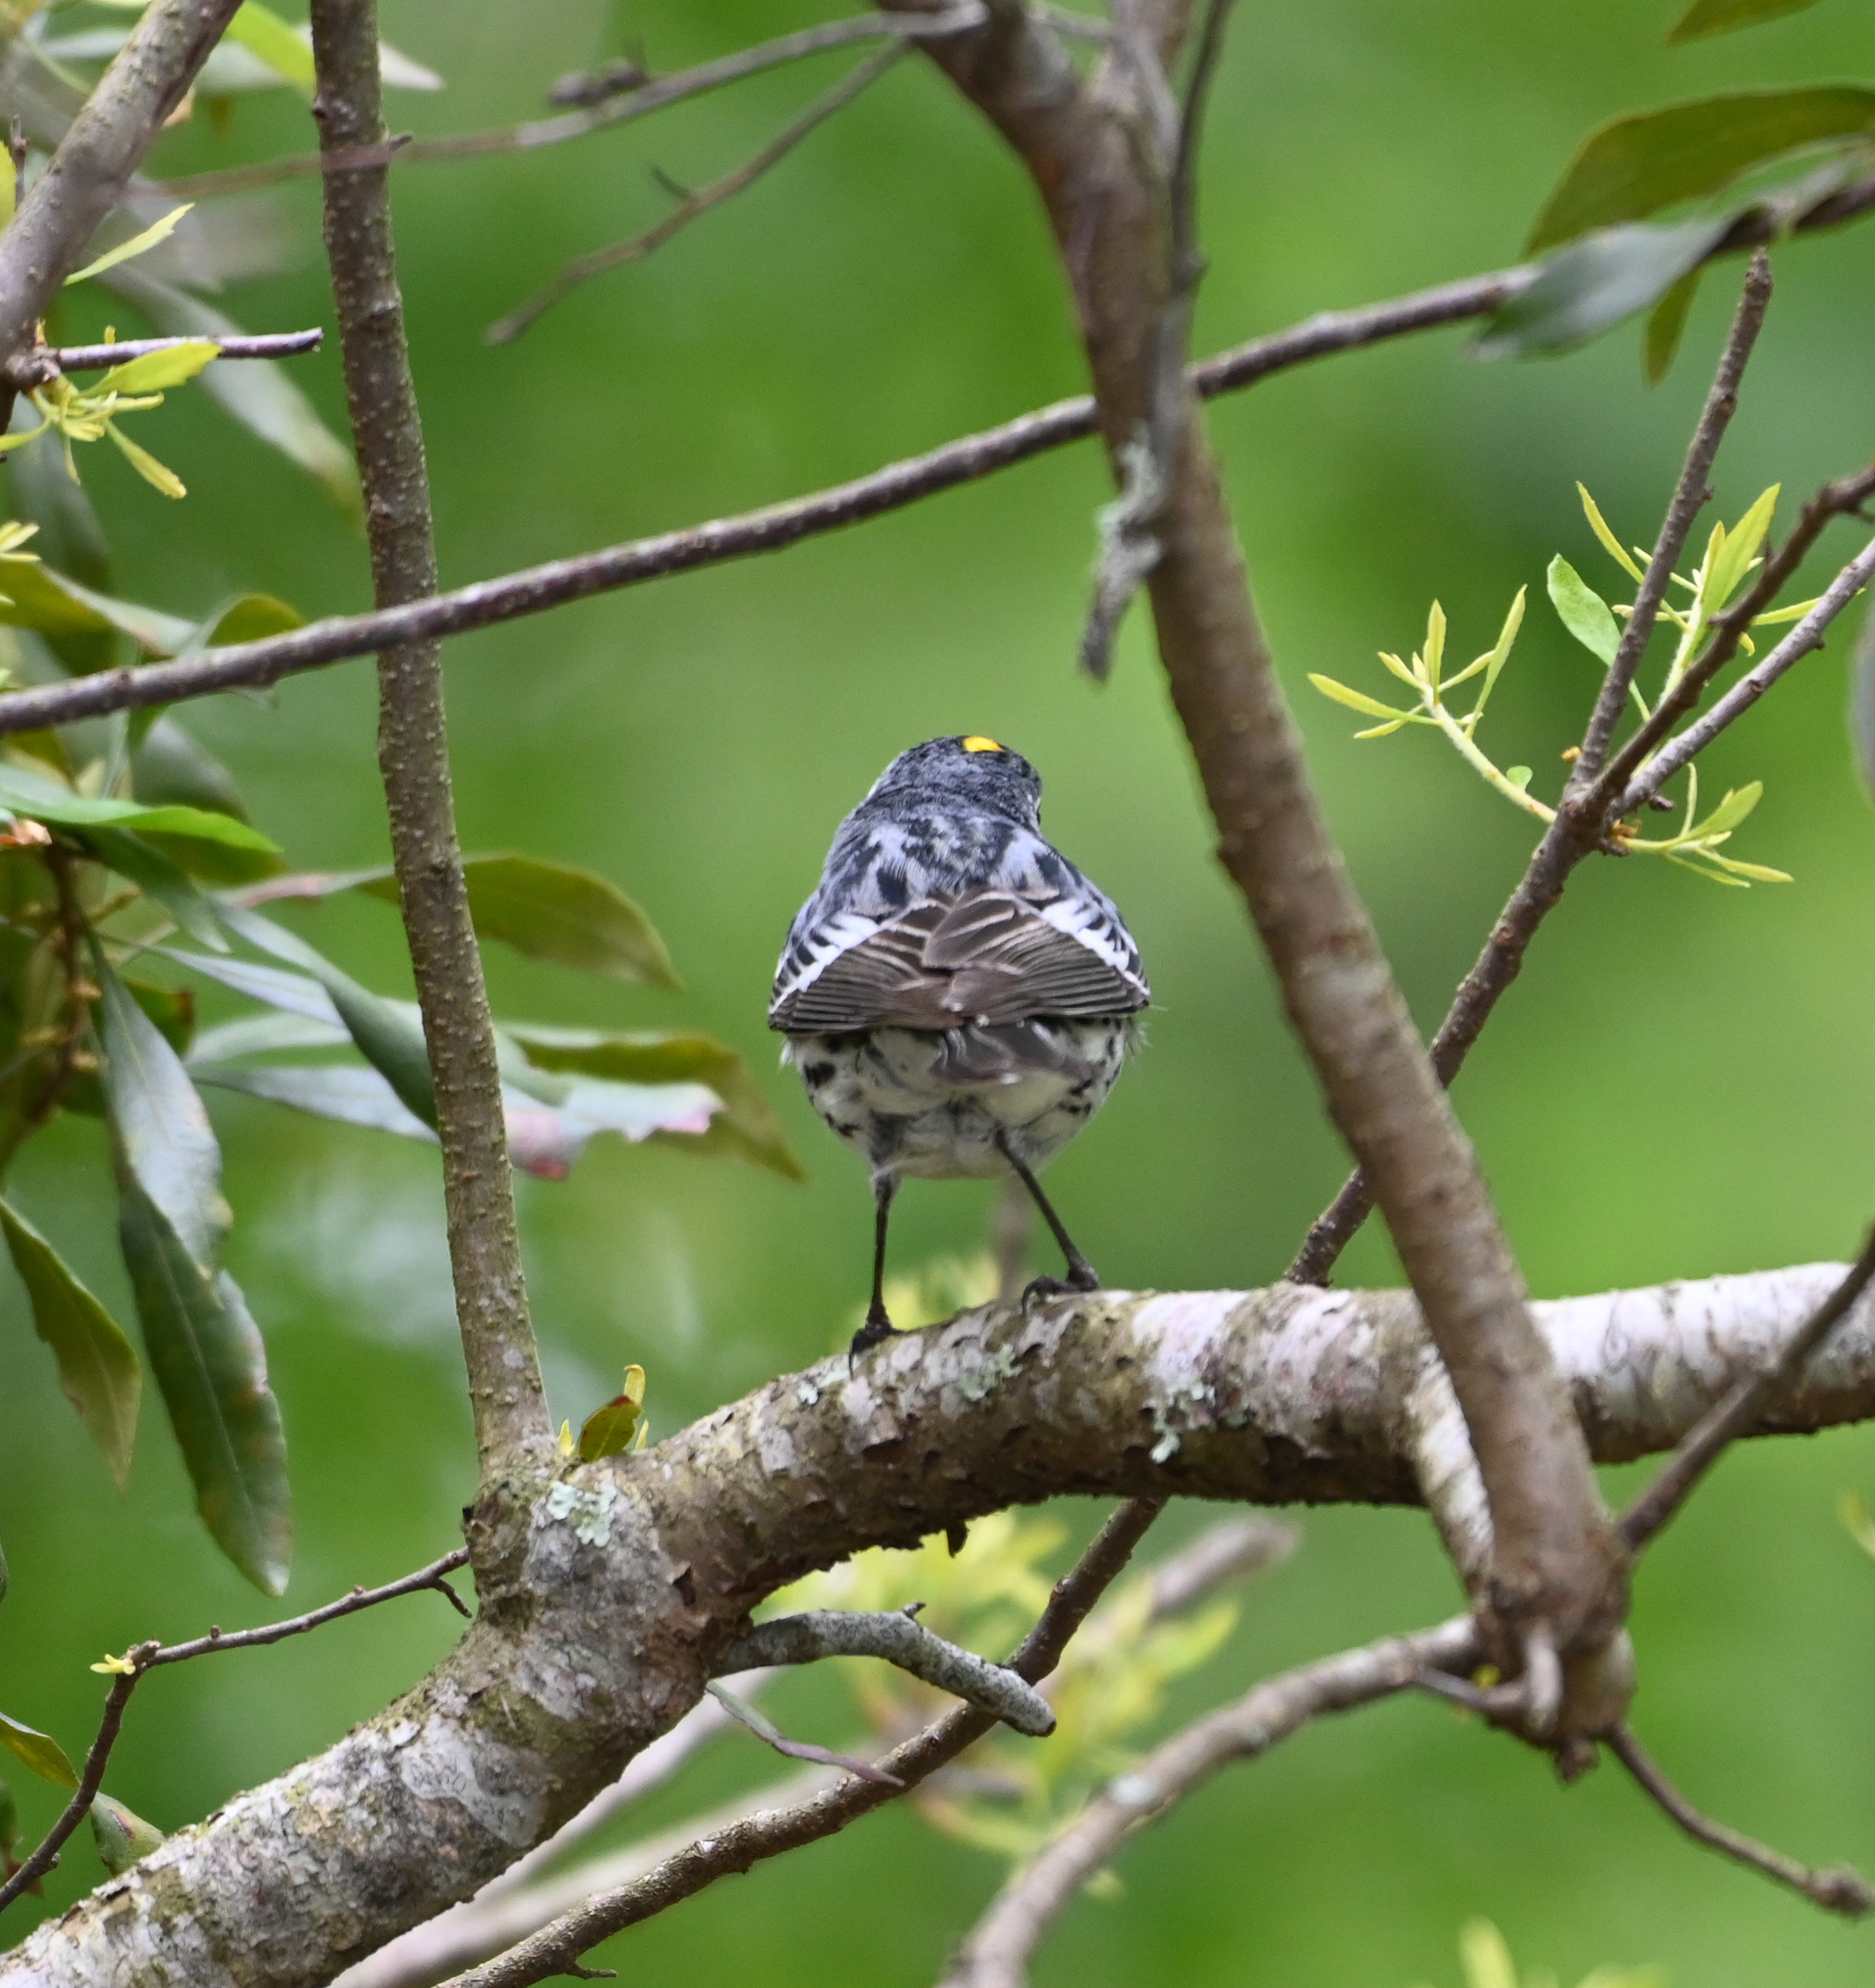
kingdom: Animalia
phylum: Chordata
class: Aves
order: Passeriformes
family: Parulidae
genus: Setophaga
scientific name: Setophaga coronata
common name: Myrtle warbler
